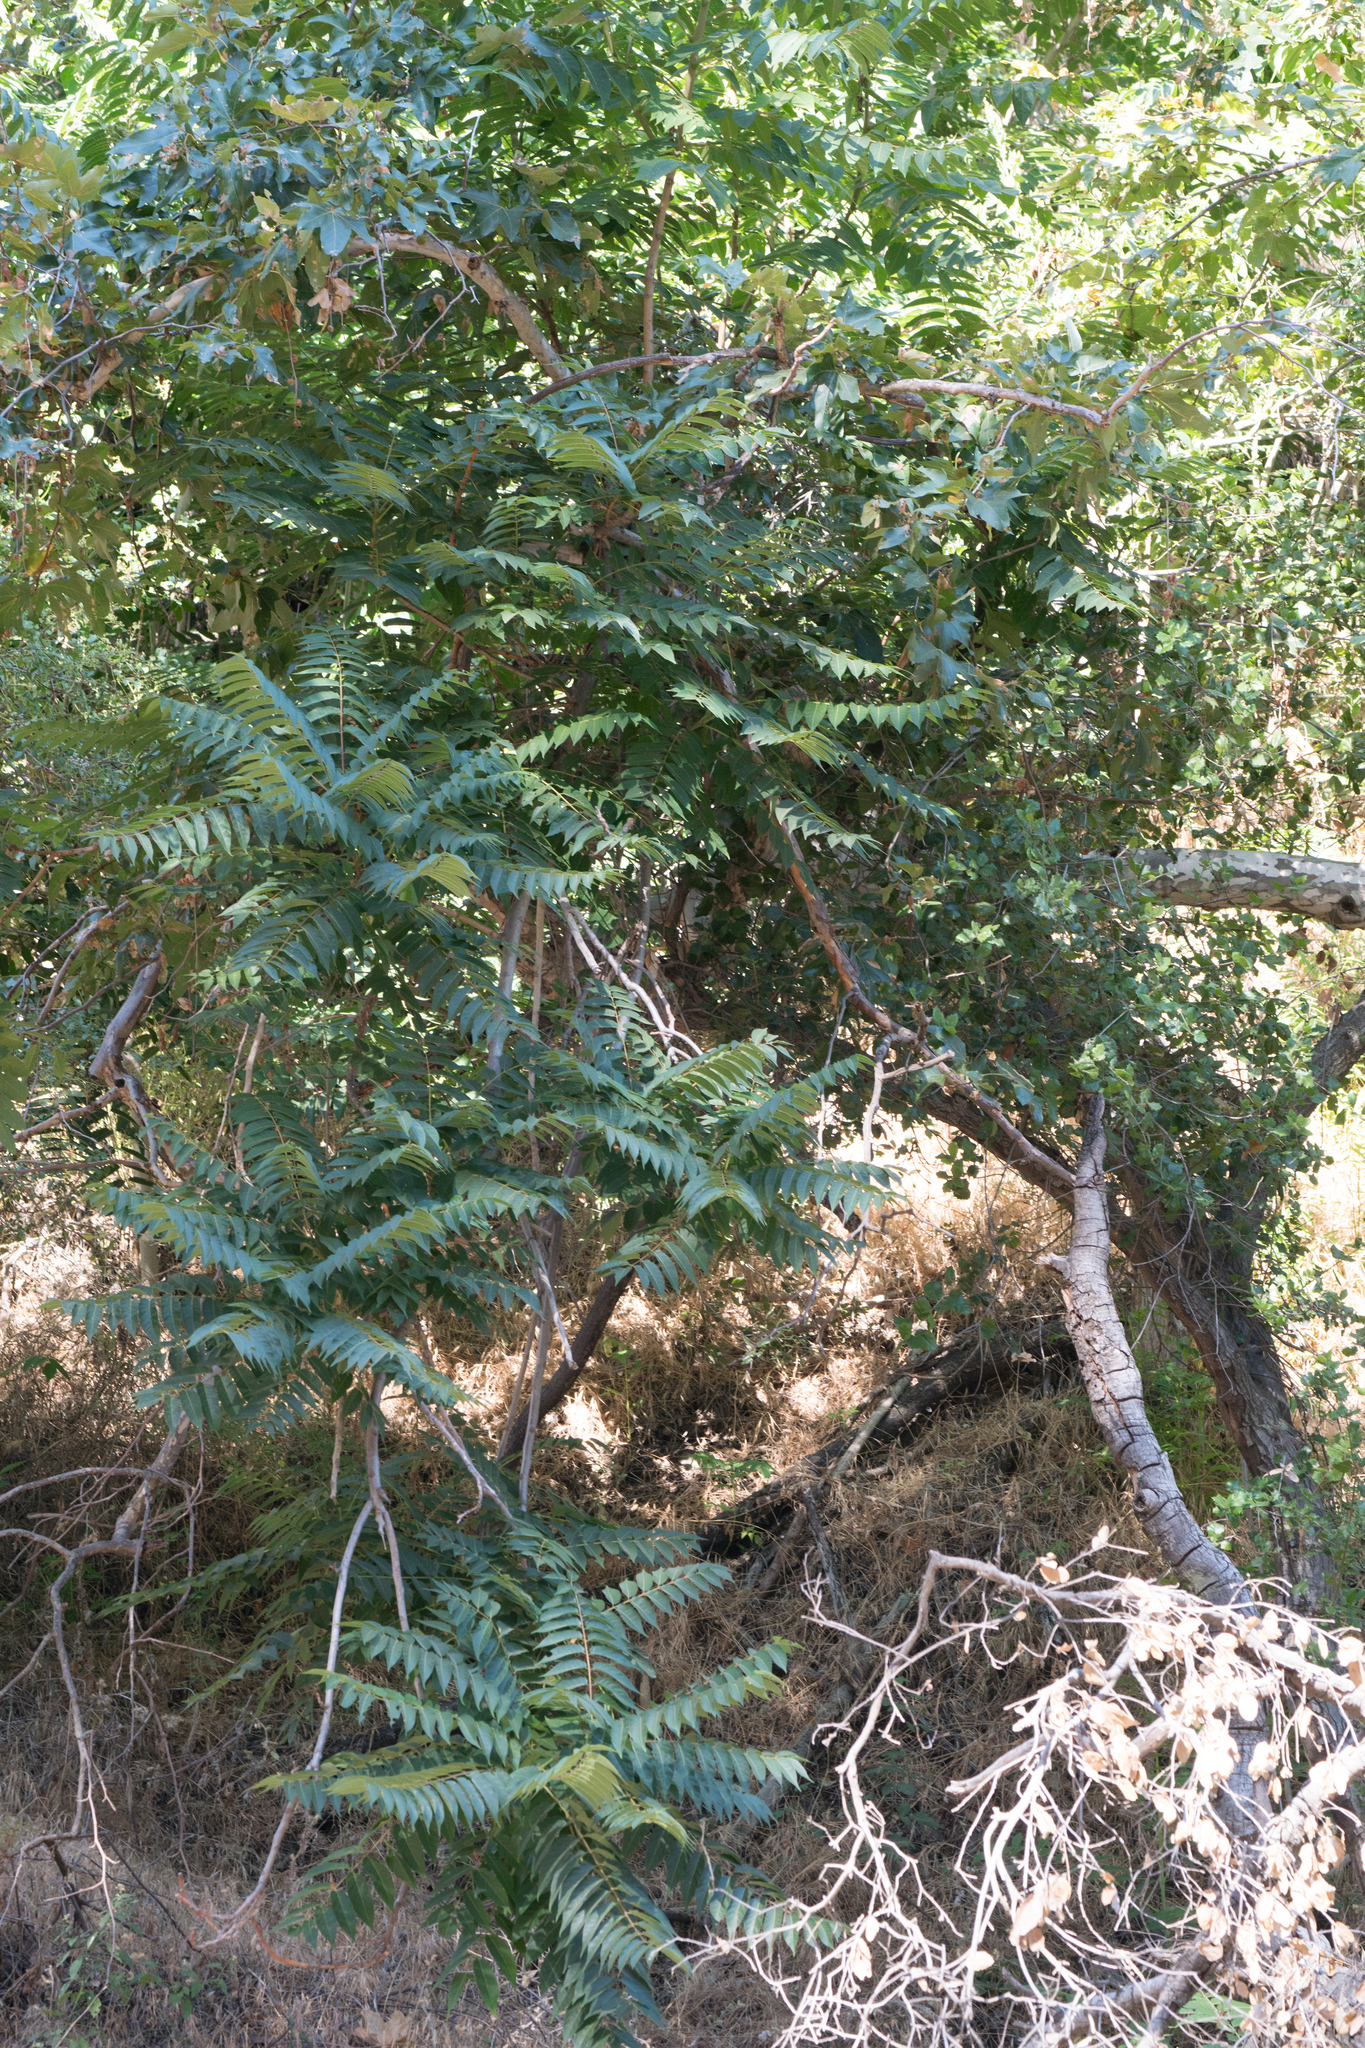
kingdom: Plantae
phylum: Tracheophyta
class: Magnoliopsida
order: Sapindales
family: Simaroubaceae
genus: Ailanthus
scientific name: Ailanthus altissima
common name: Tree-of-heaven
